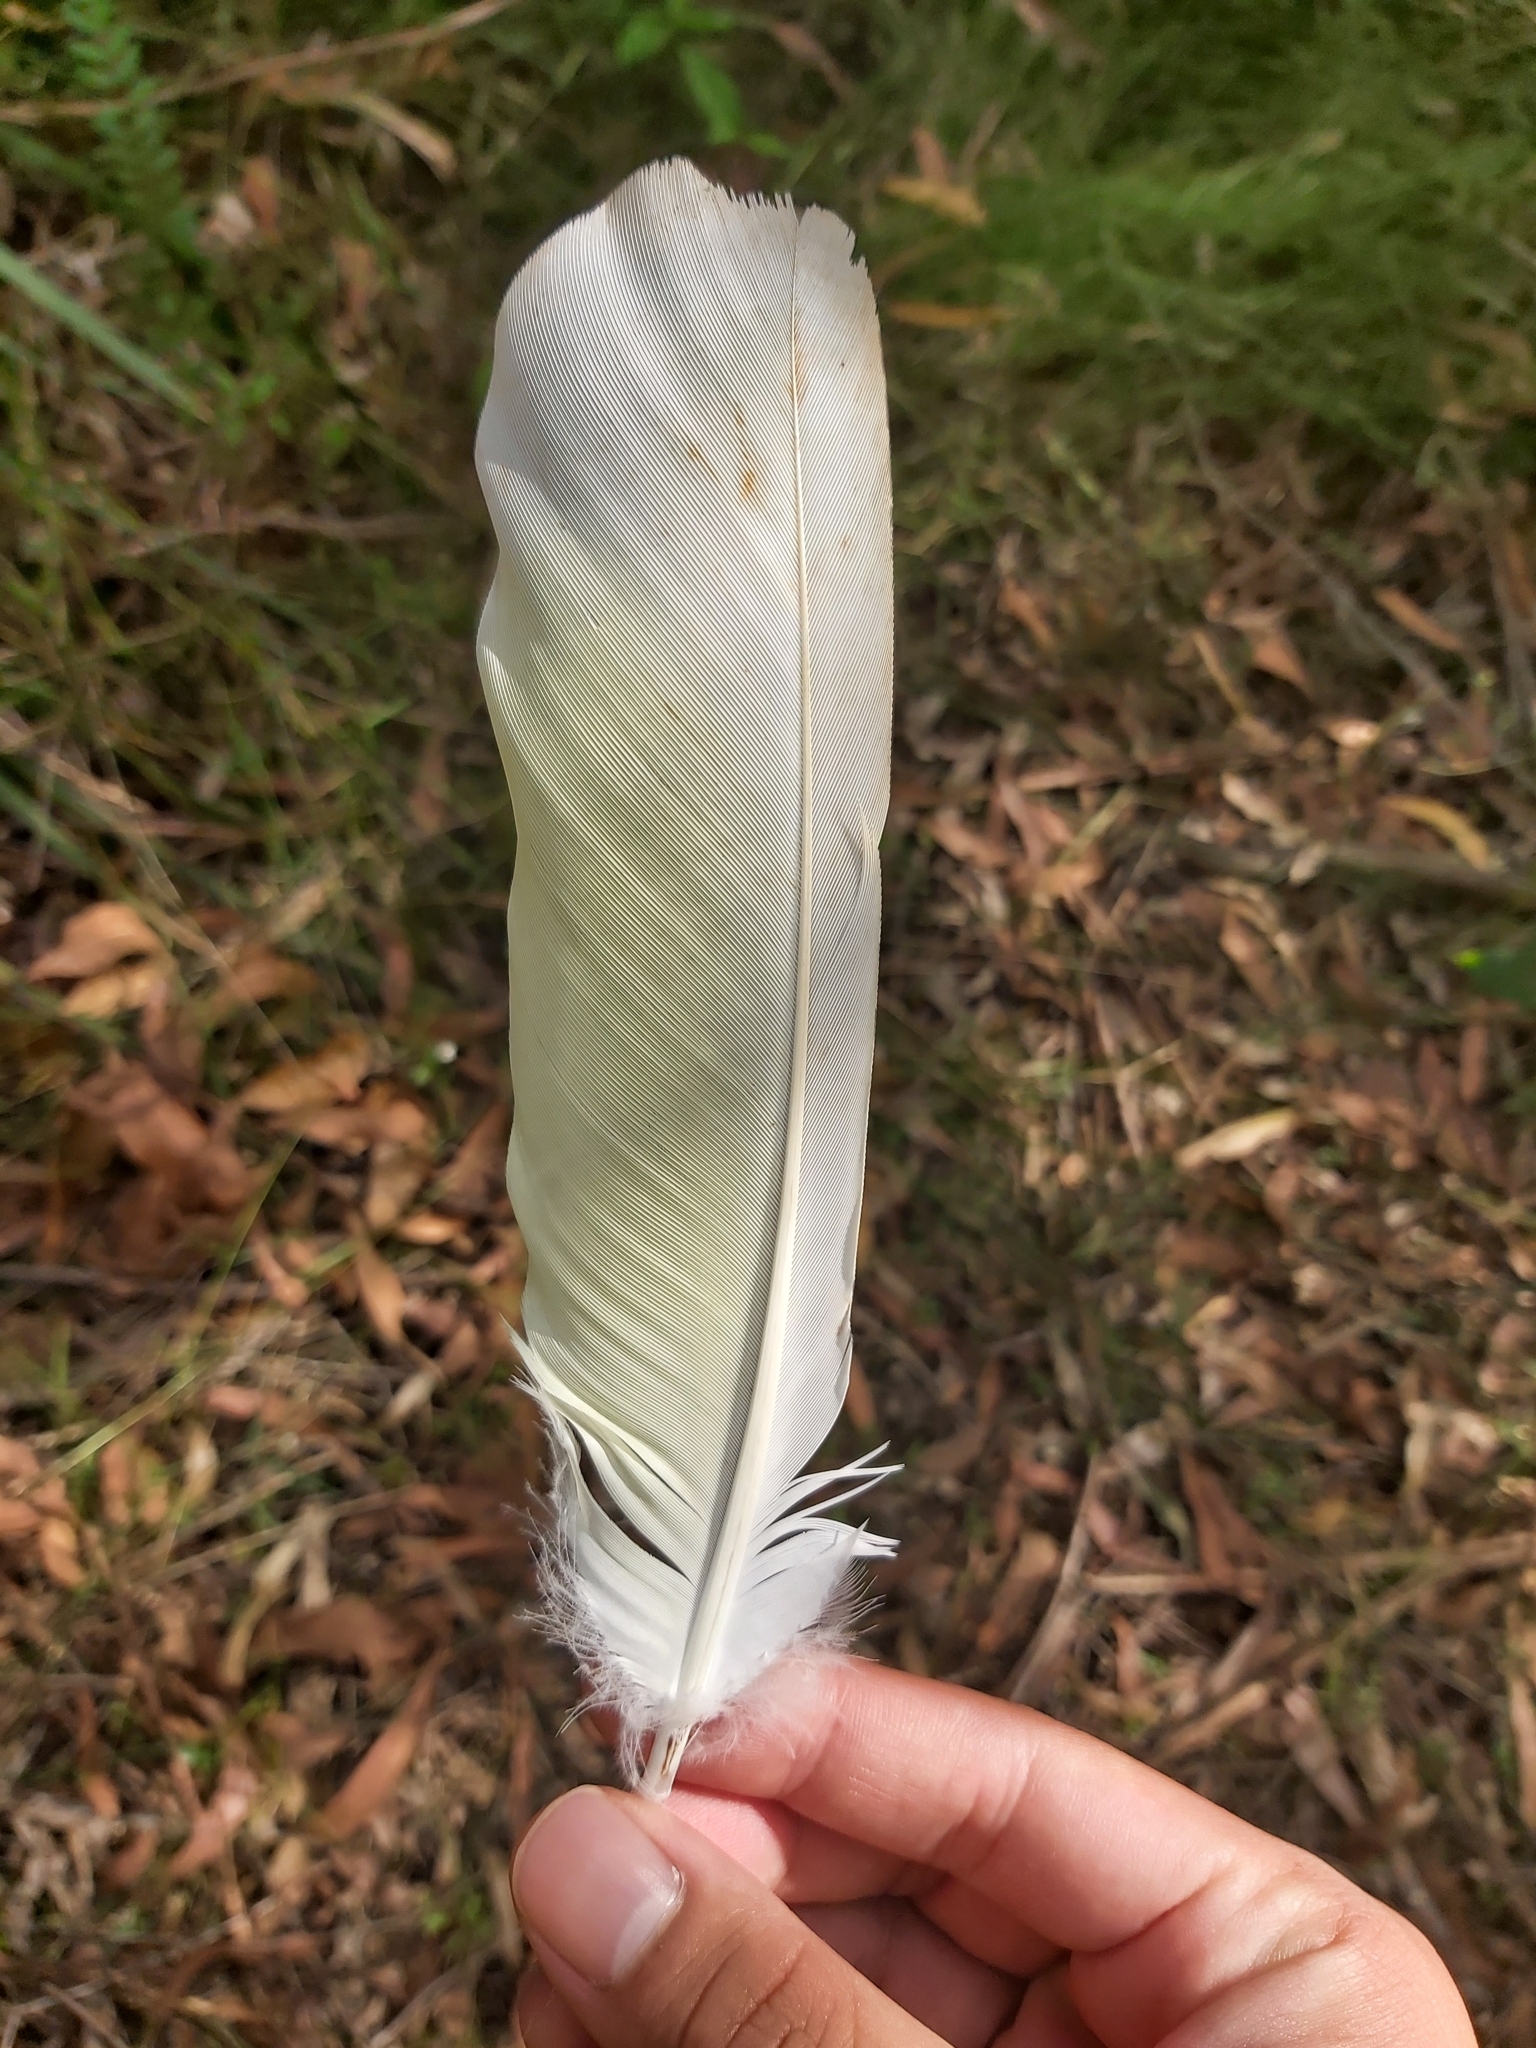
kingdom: Animalia
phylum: Chordata
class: Aves
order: Psittaciformes
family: Psittacidae
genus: Cacatua
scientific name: Cacatua galerita
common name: Sulphur-crested cockatoo
